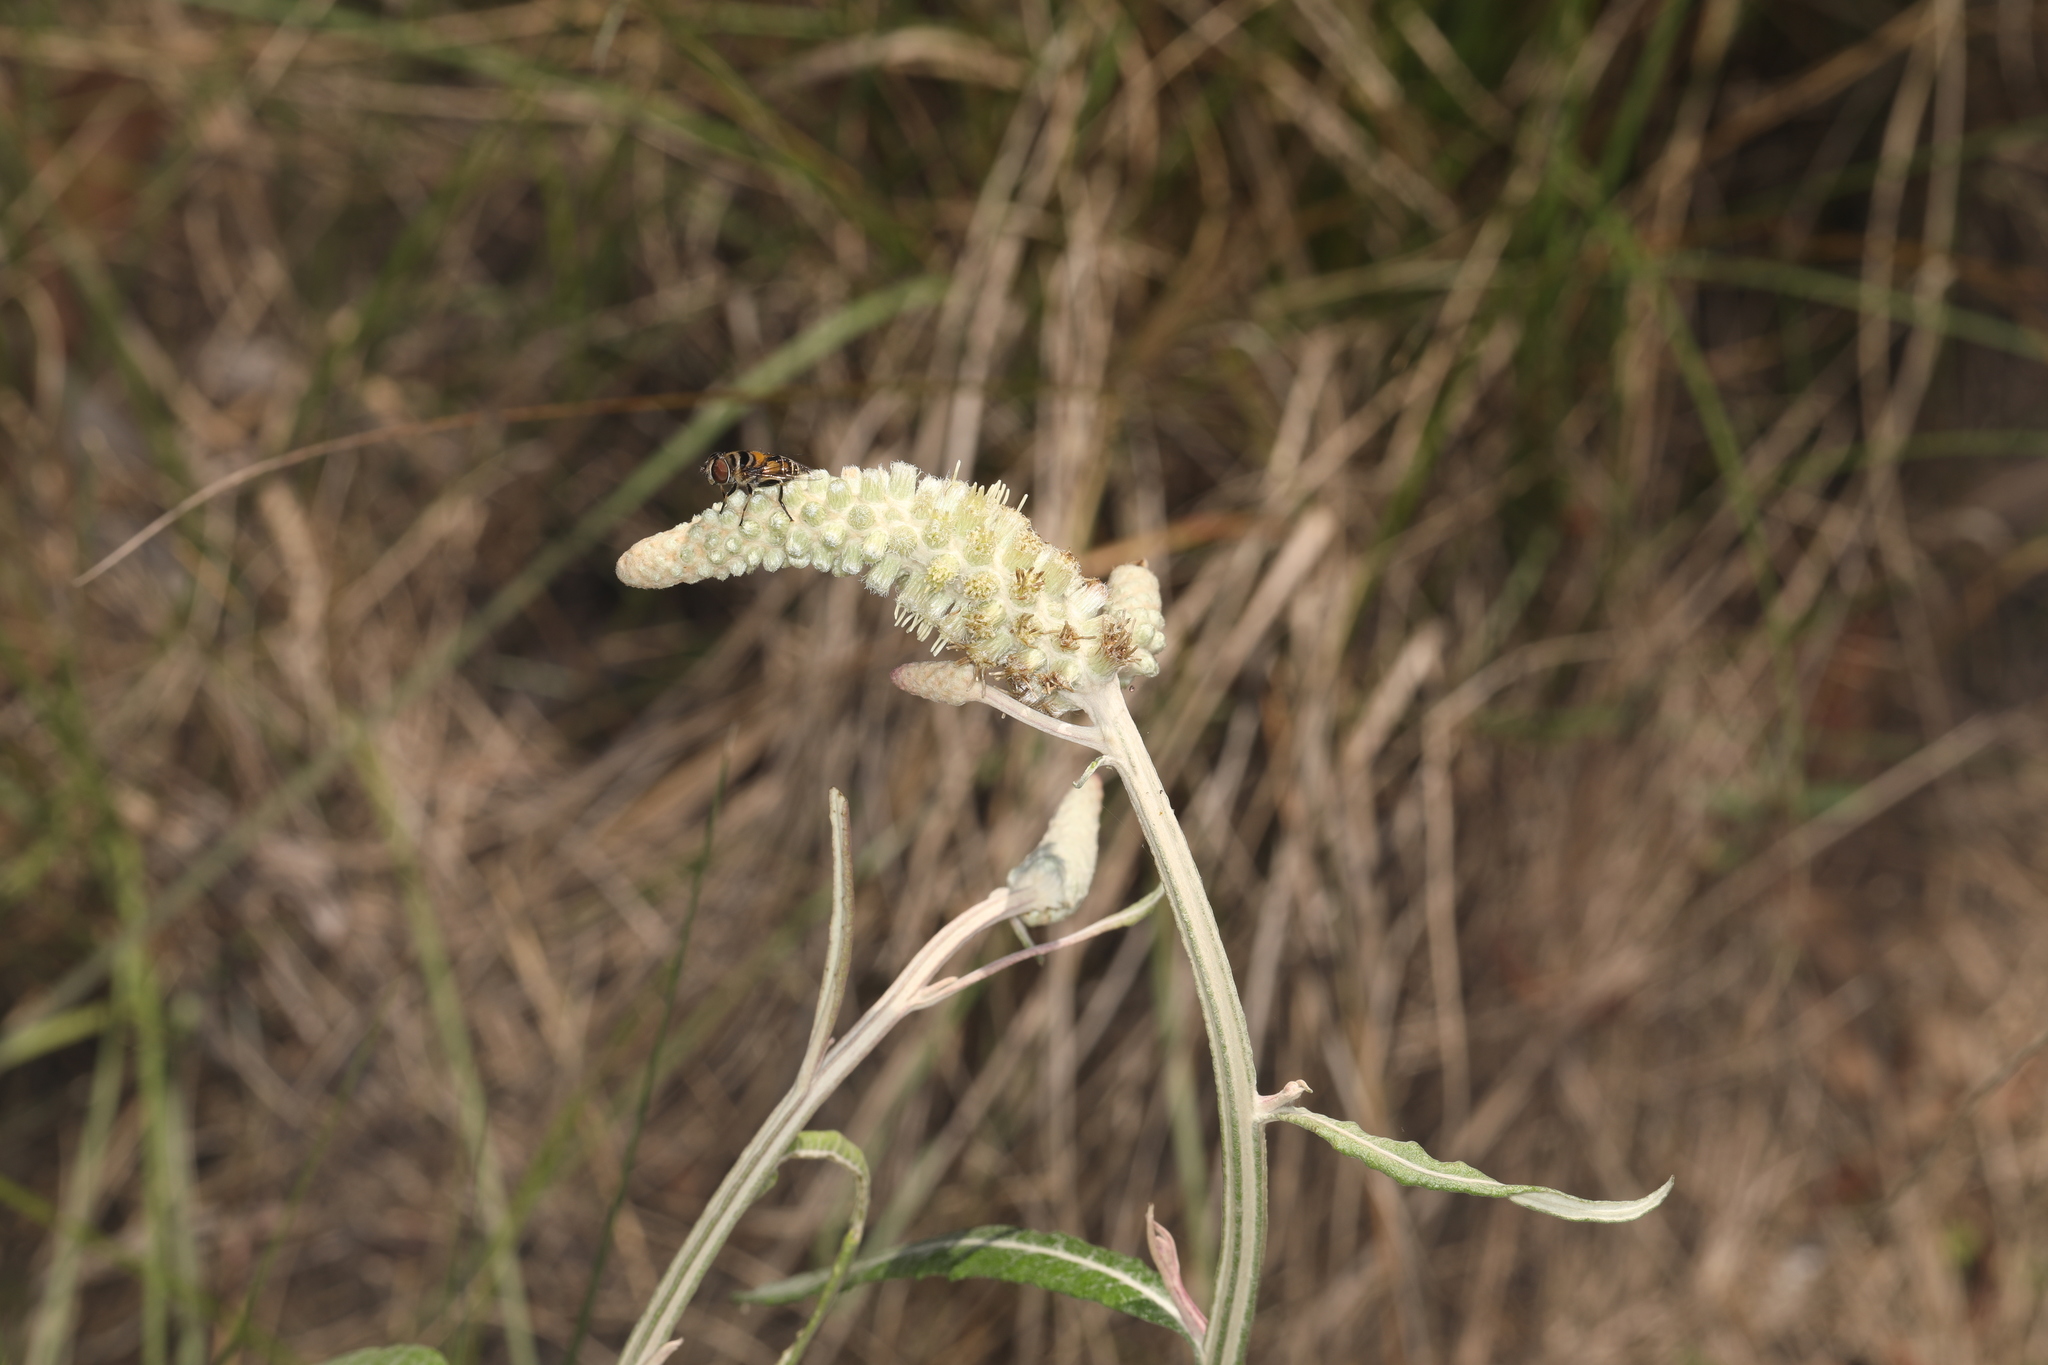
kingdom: Plantae
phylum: Tracheophyta
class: Magnoliopsida
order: Asterales
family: Asteraceae
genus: Pterocaulon
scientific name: Pterocaulon pycnostachyum
